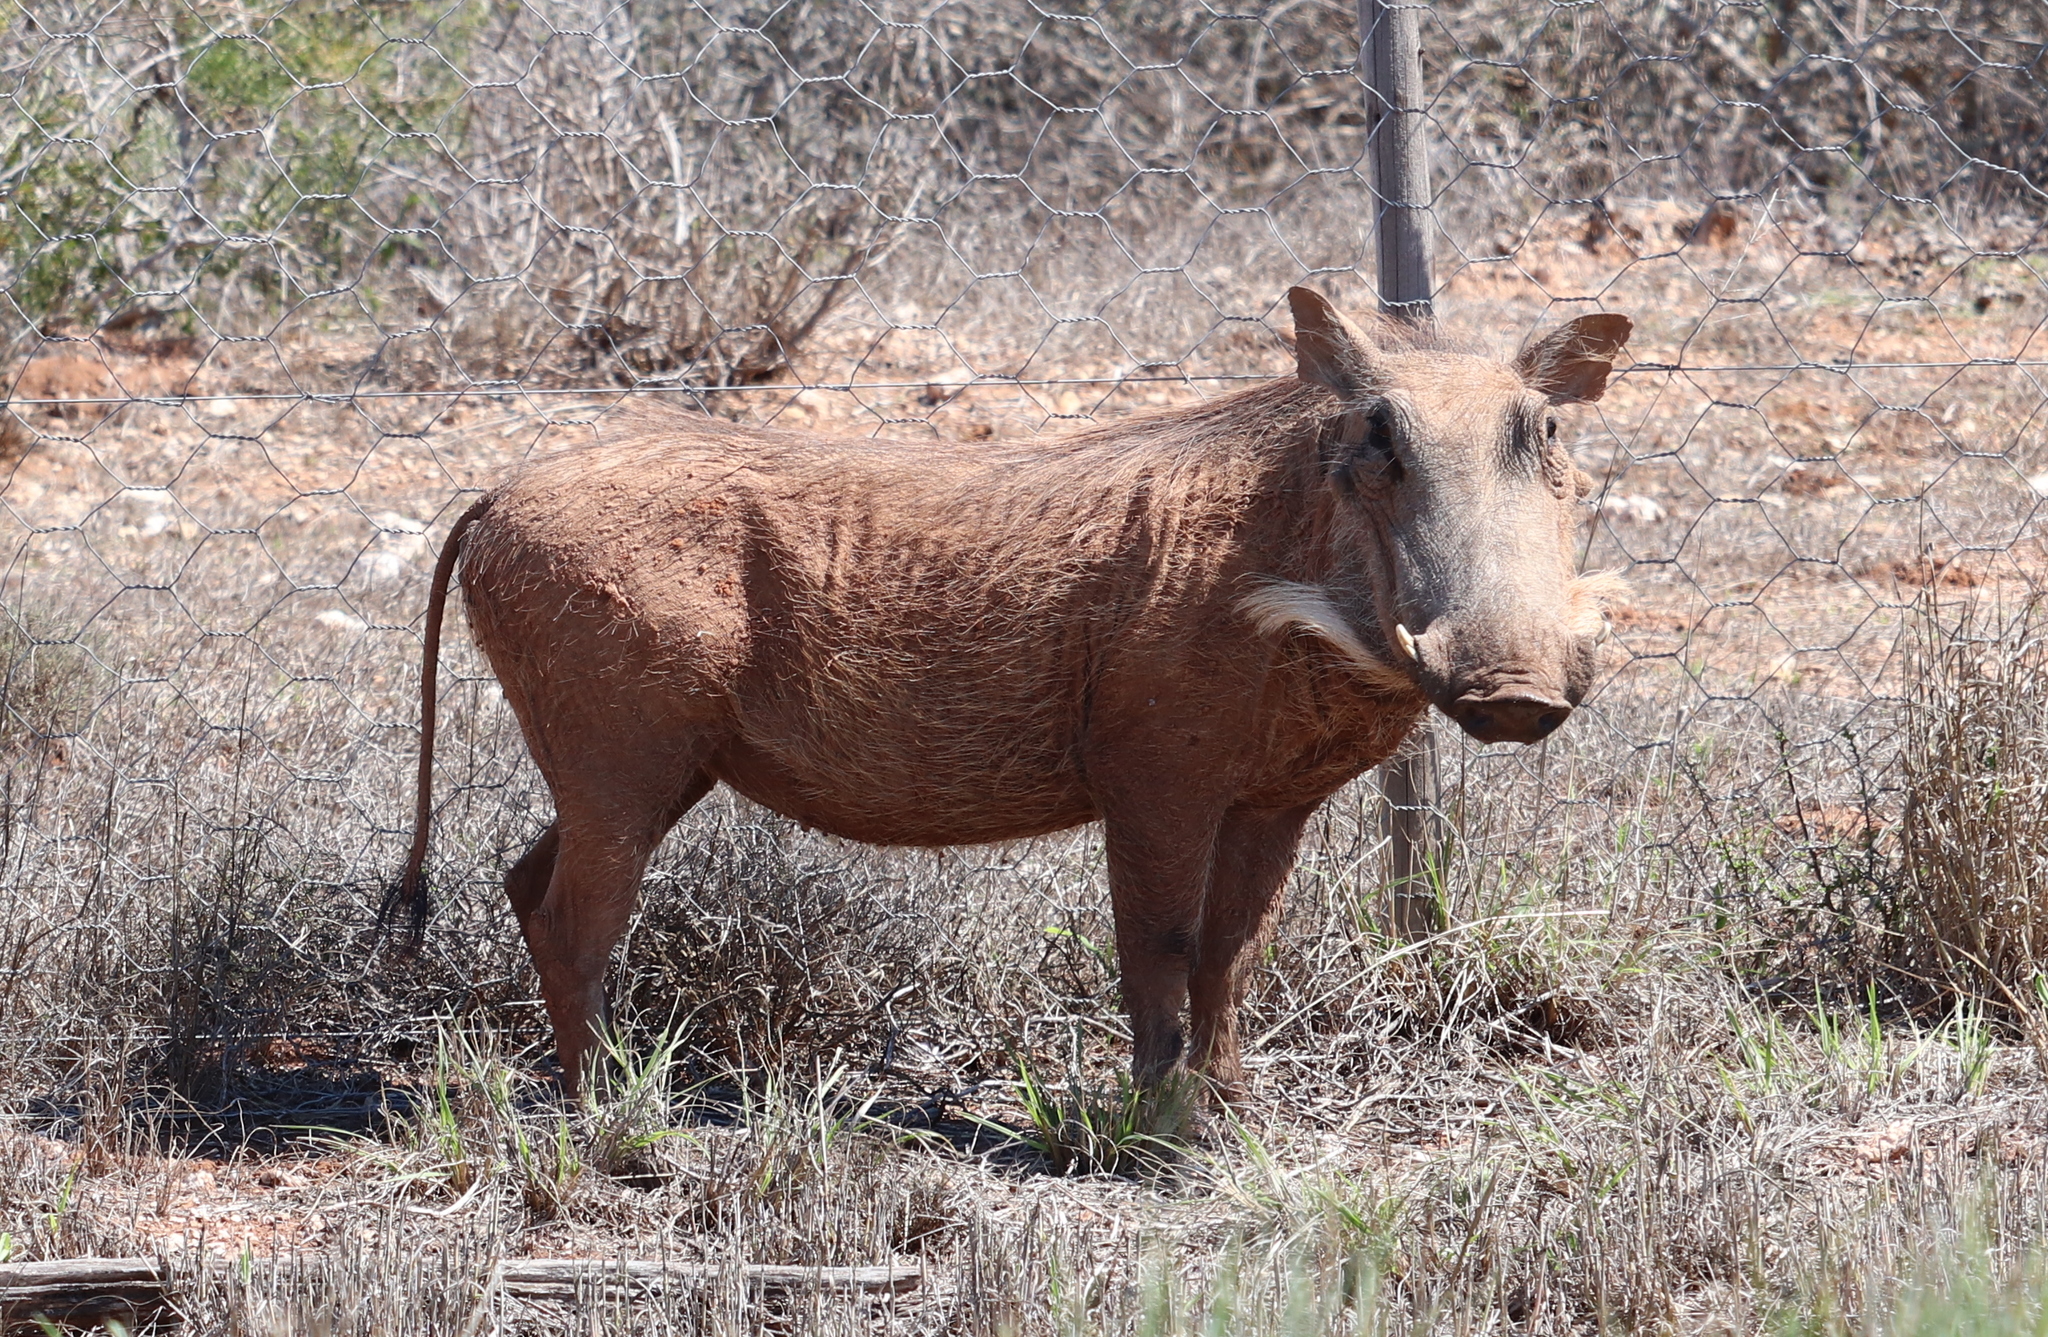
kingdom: Animalia
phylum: Chordata
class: Mammalia
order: Artiodactyla
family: Suidae
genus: Phacochoerus
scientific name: Phacochoerus africanus
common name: Common warthog
